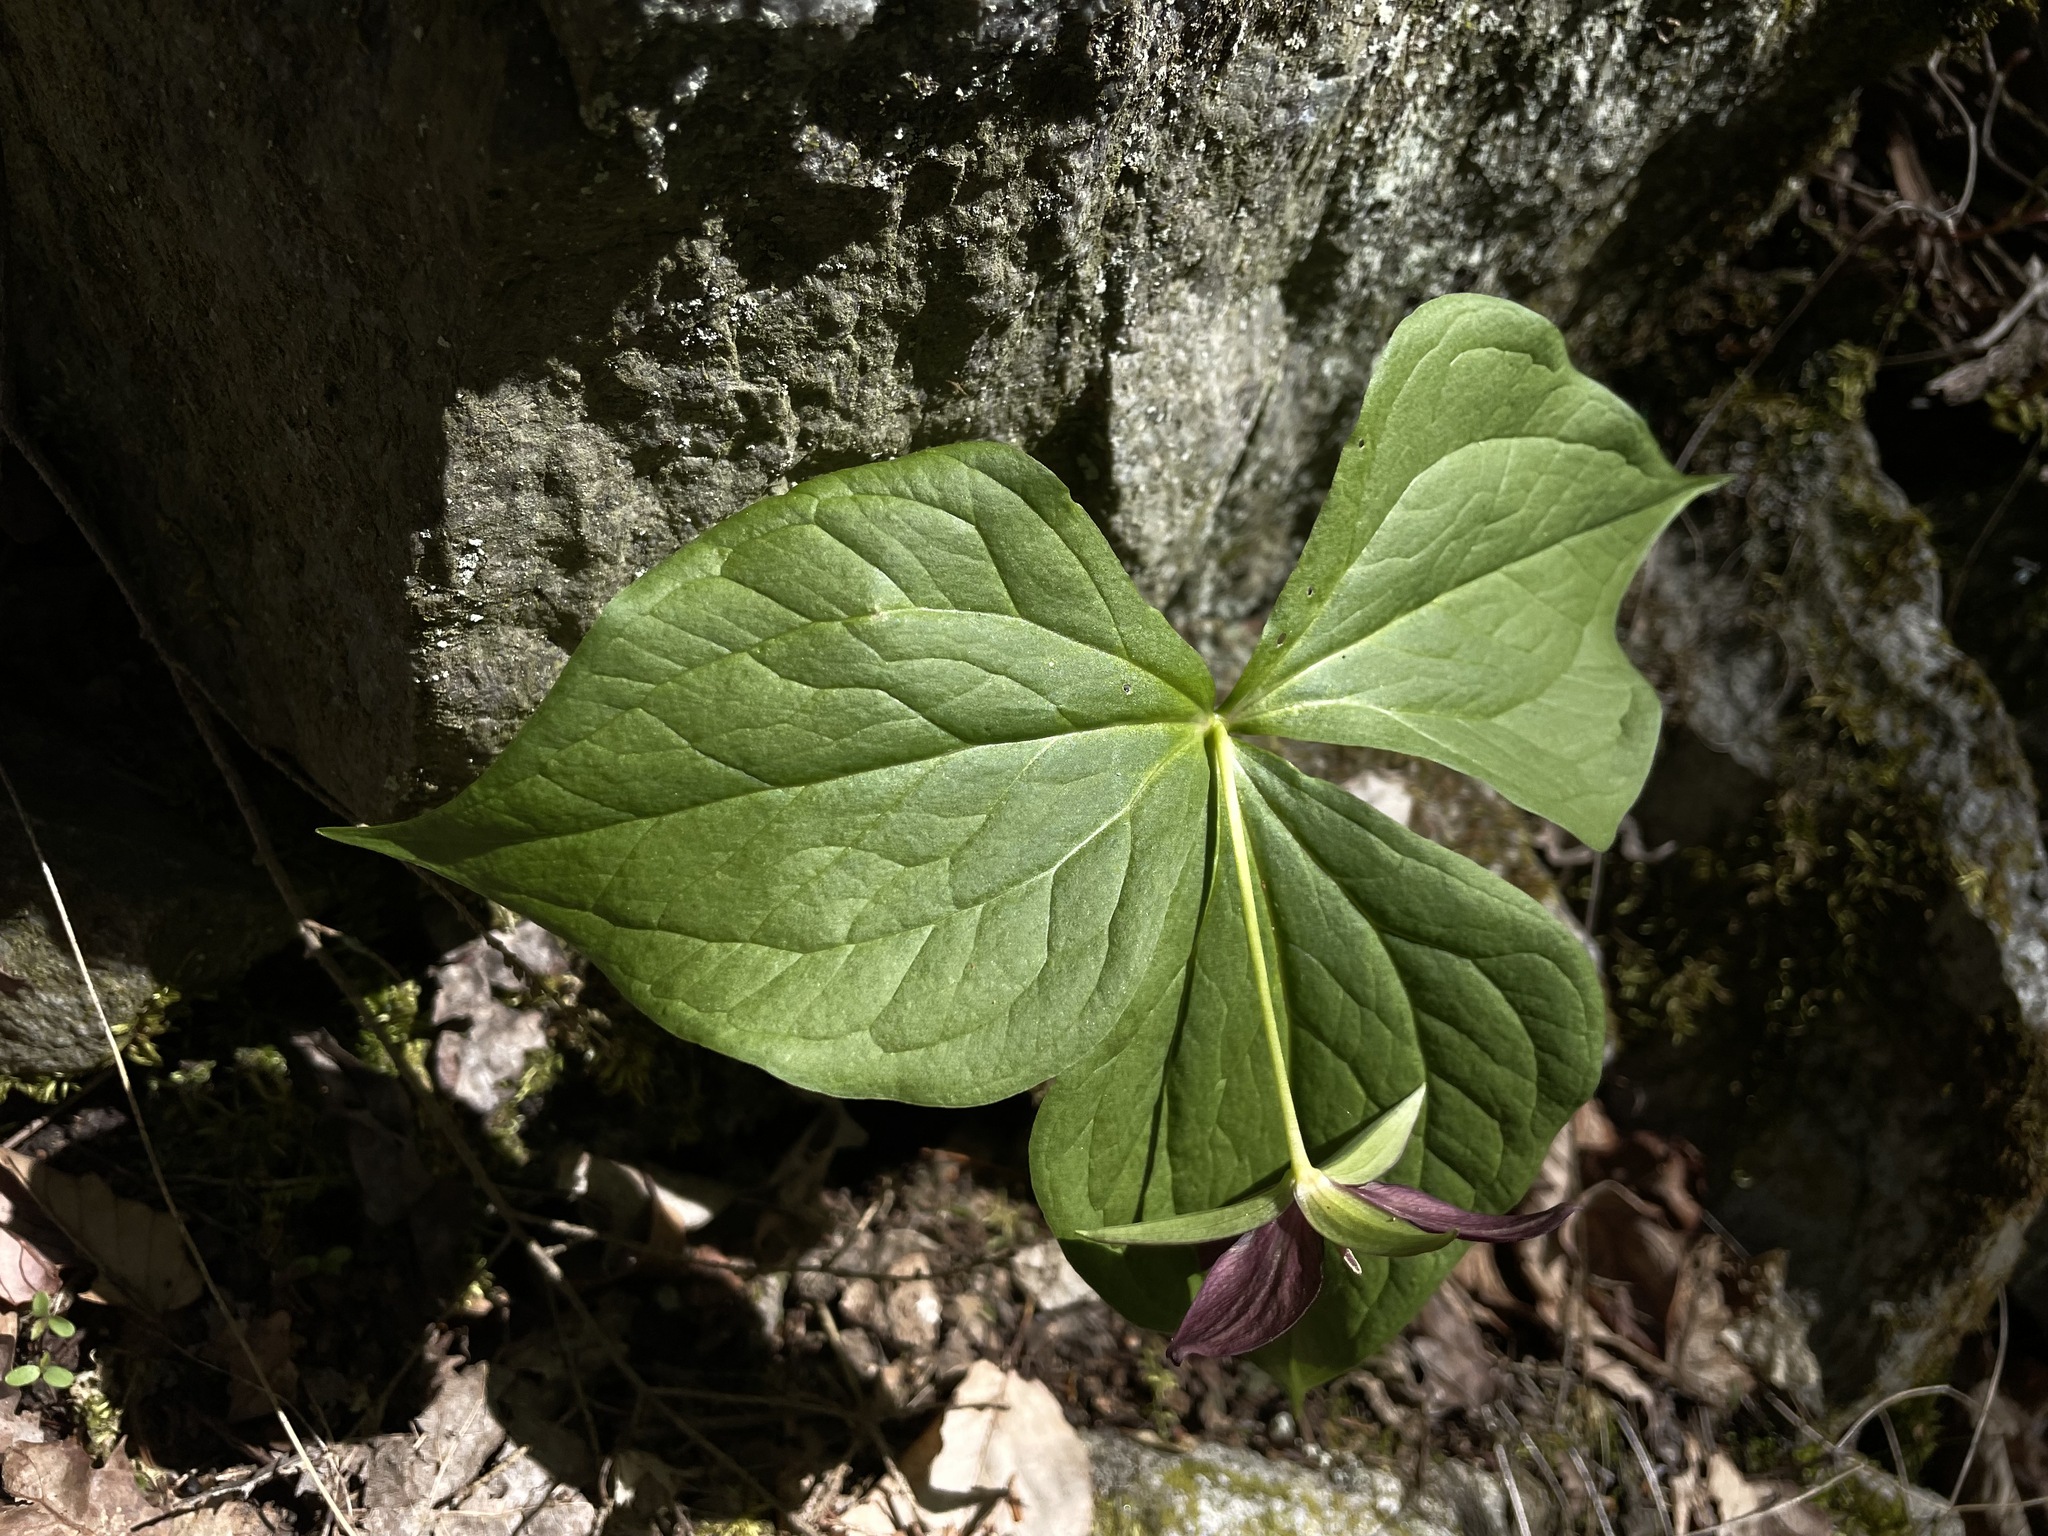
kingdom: Plantae
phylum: Tracheophyta
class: Liliopsida
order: Liliales
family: Melanthiaceae
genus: Trillium
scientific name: Trillium erectum
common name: Purple trillium
